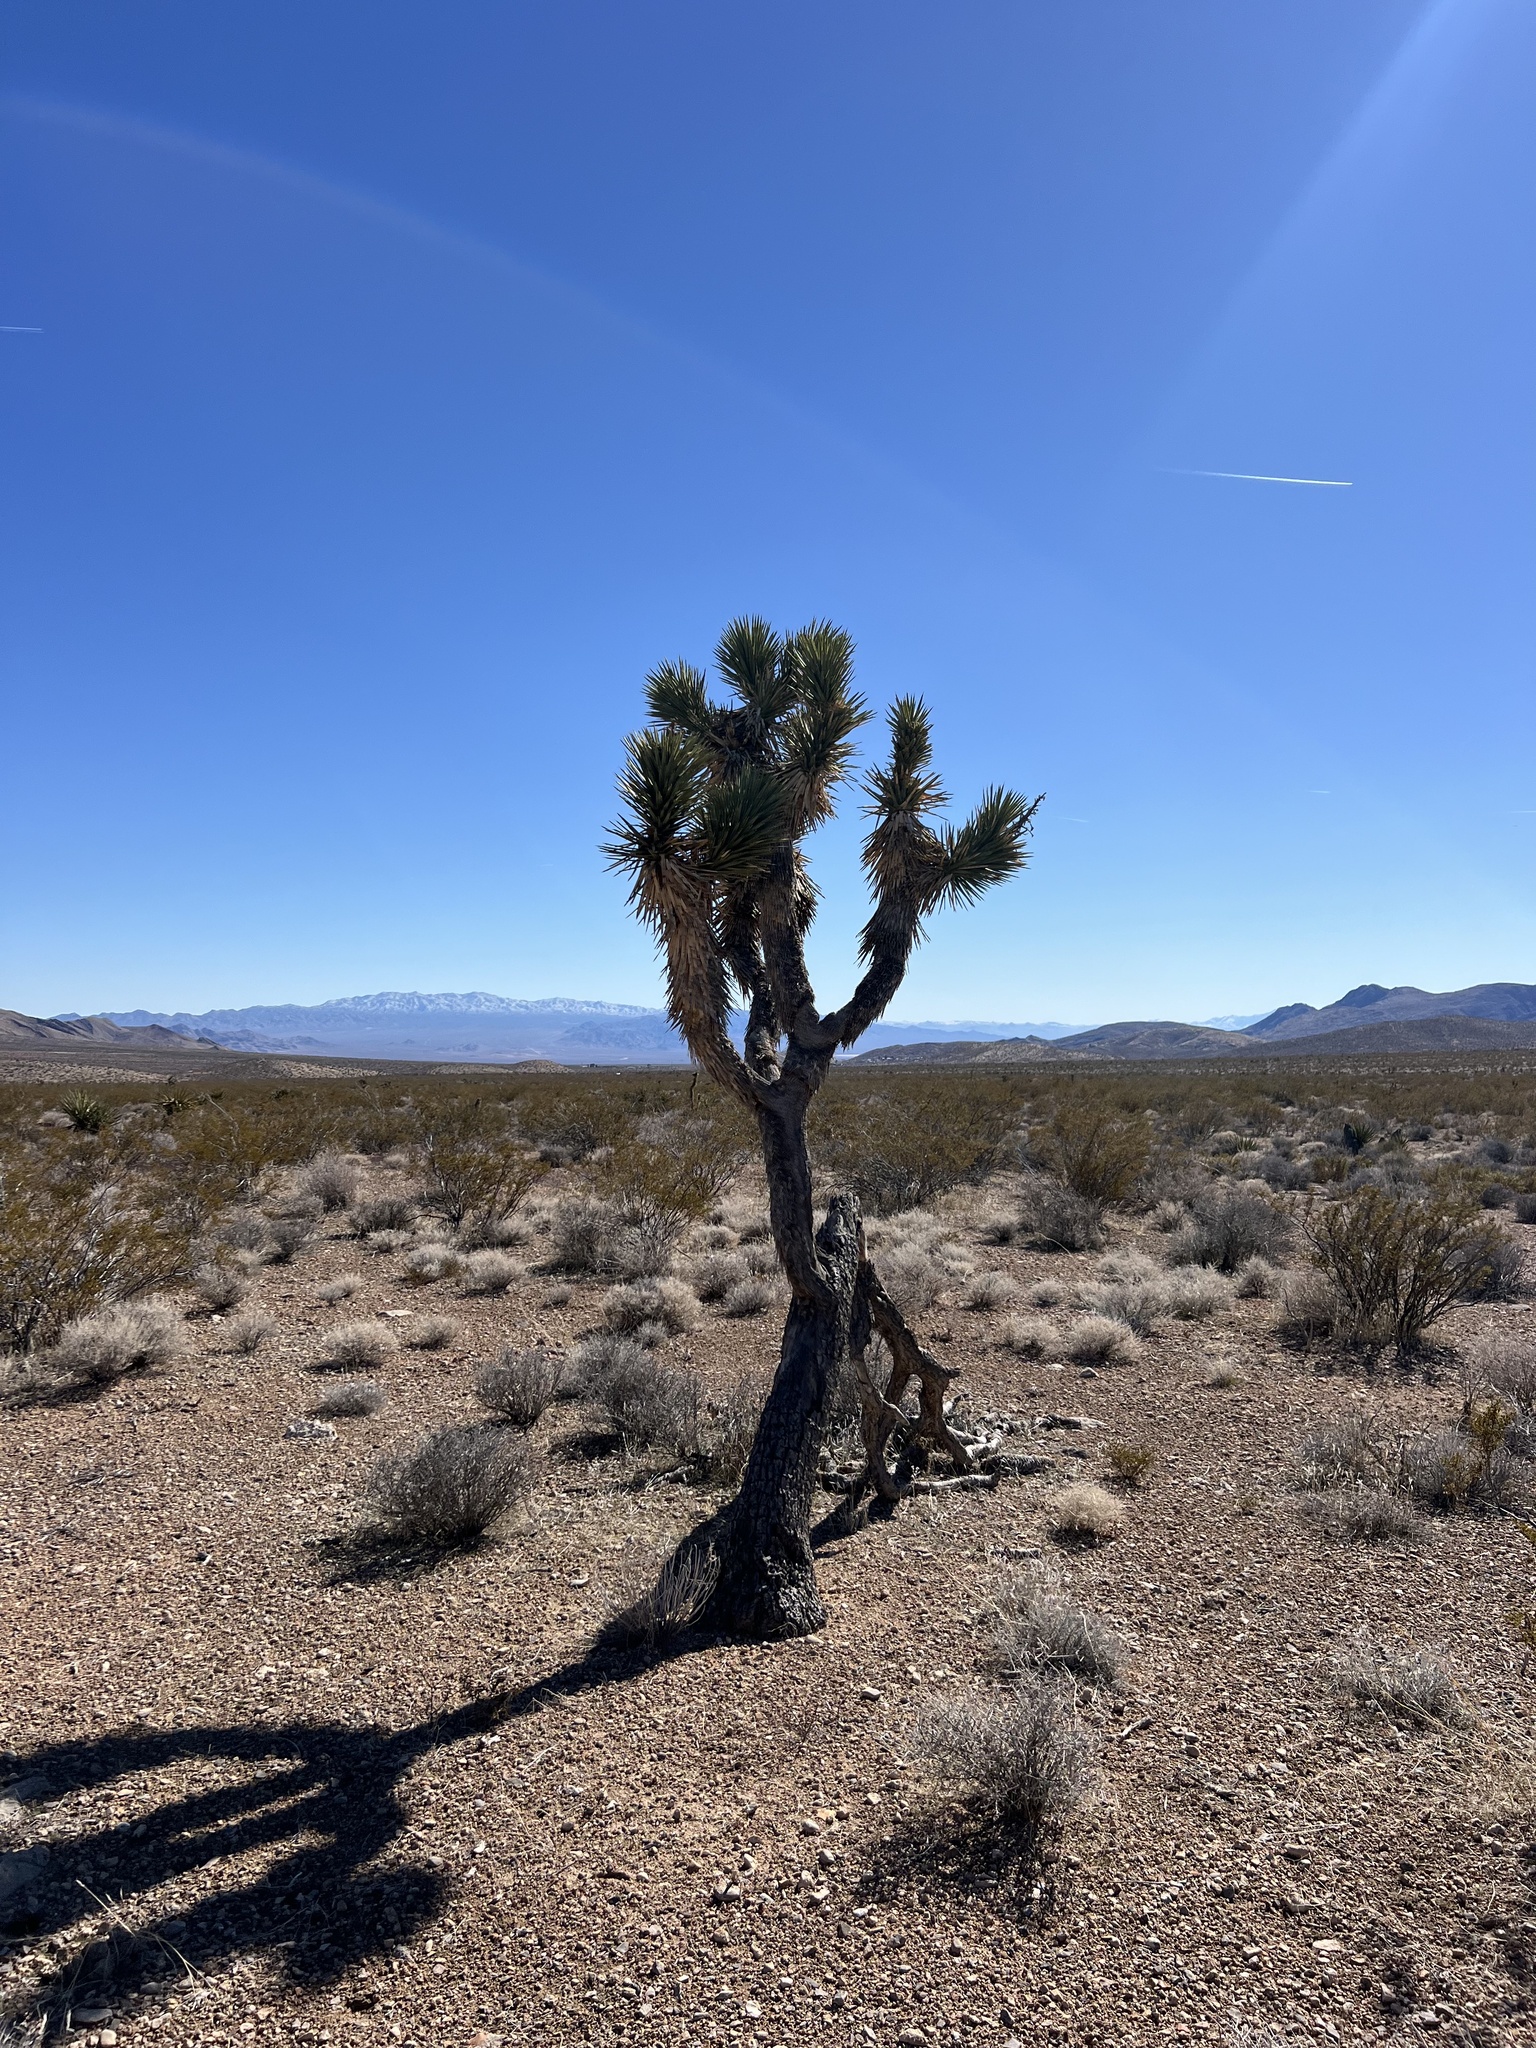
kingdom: Plantae
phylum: Tracheophyta
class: Liliopsida
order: Asparagales
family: Asparagaceae
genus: Yucca
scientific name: Yucca brevifolia
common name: Joshua tree
